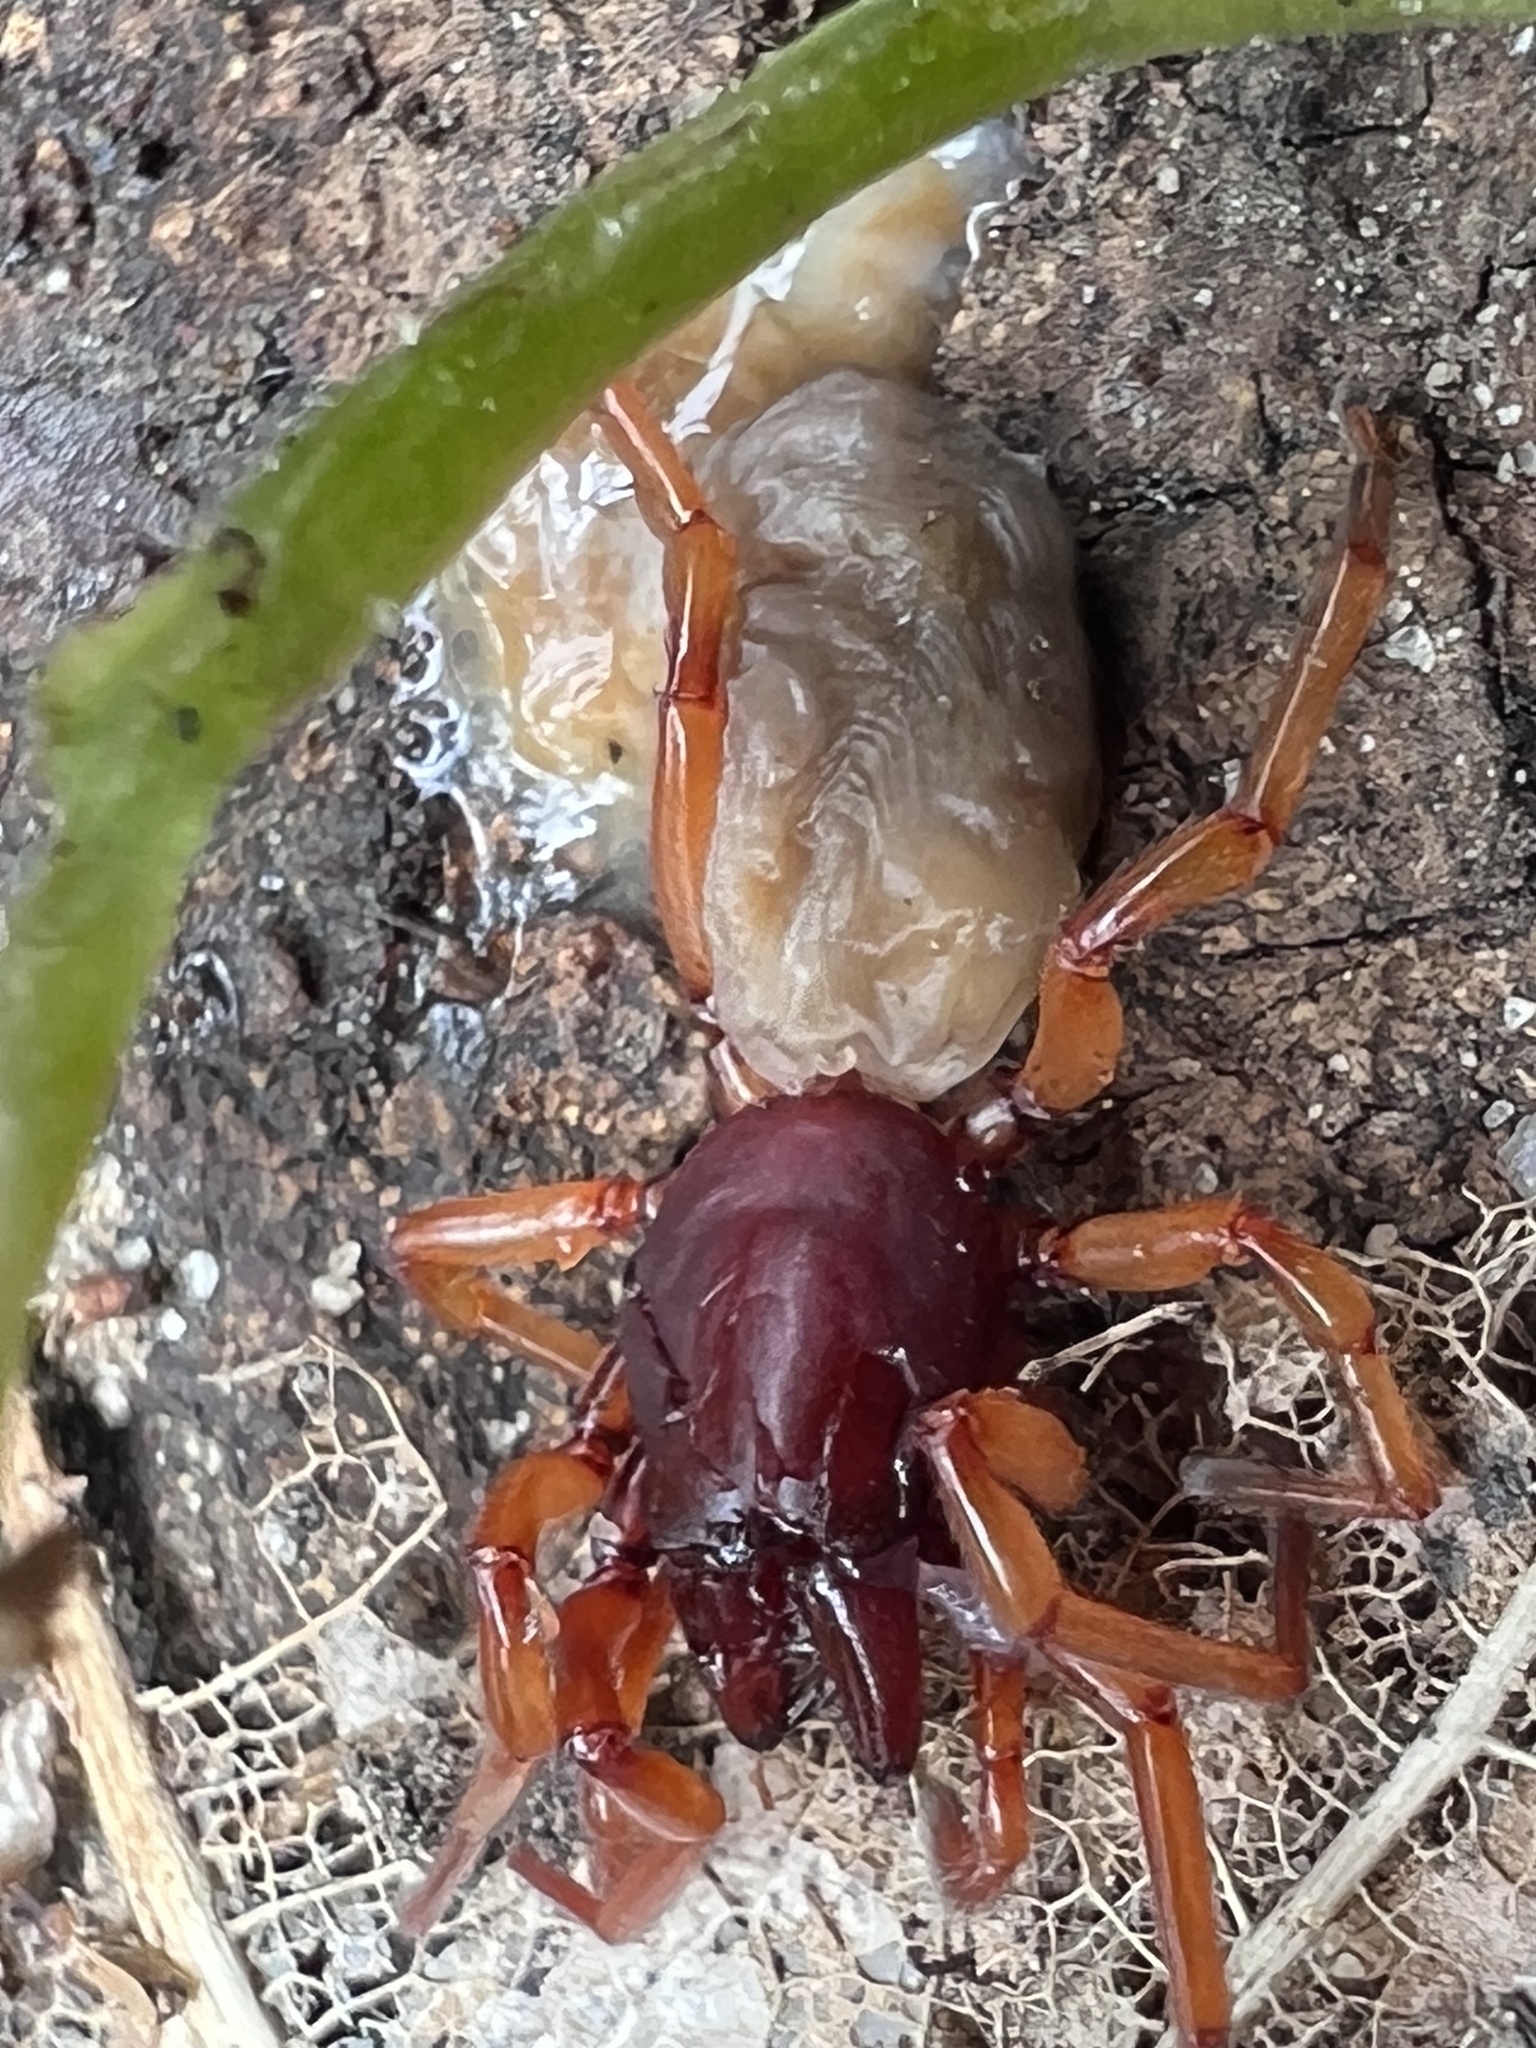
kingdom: Animalia
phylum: Arthropoda
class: Arachnida
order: Araneae
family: Dysderidae
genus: Dysdera
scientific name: Dysdera crocata
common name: Woodlouse spider
